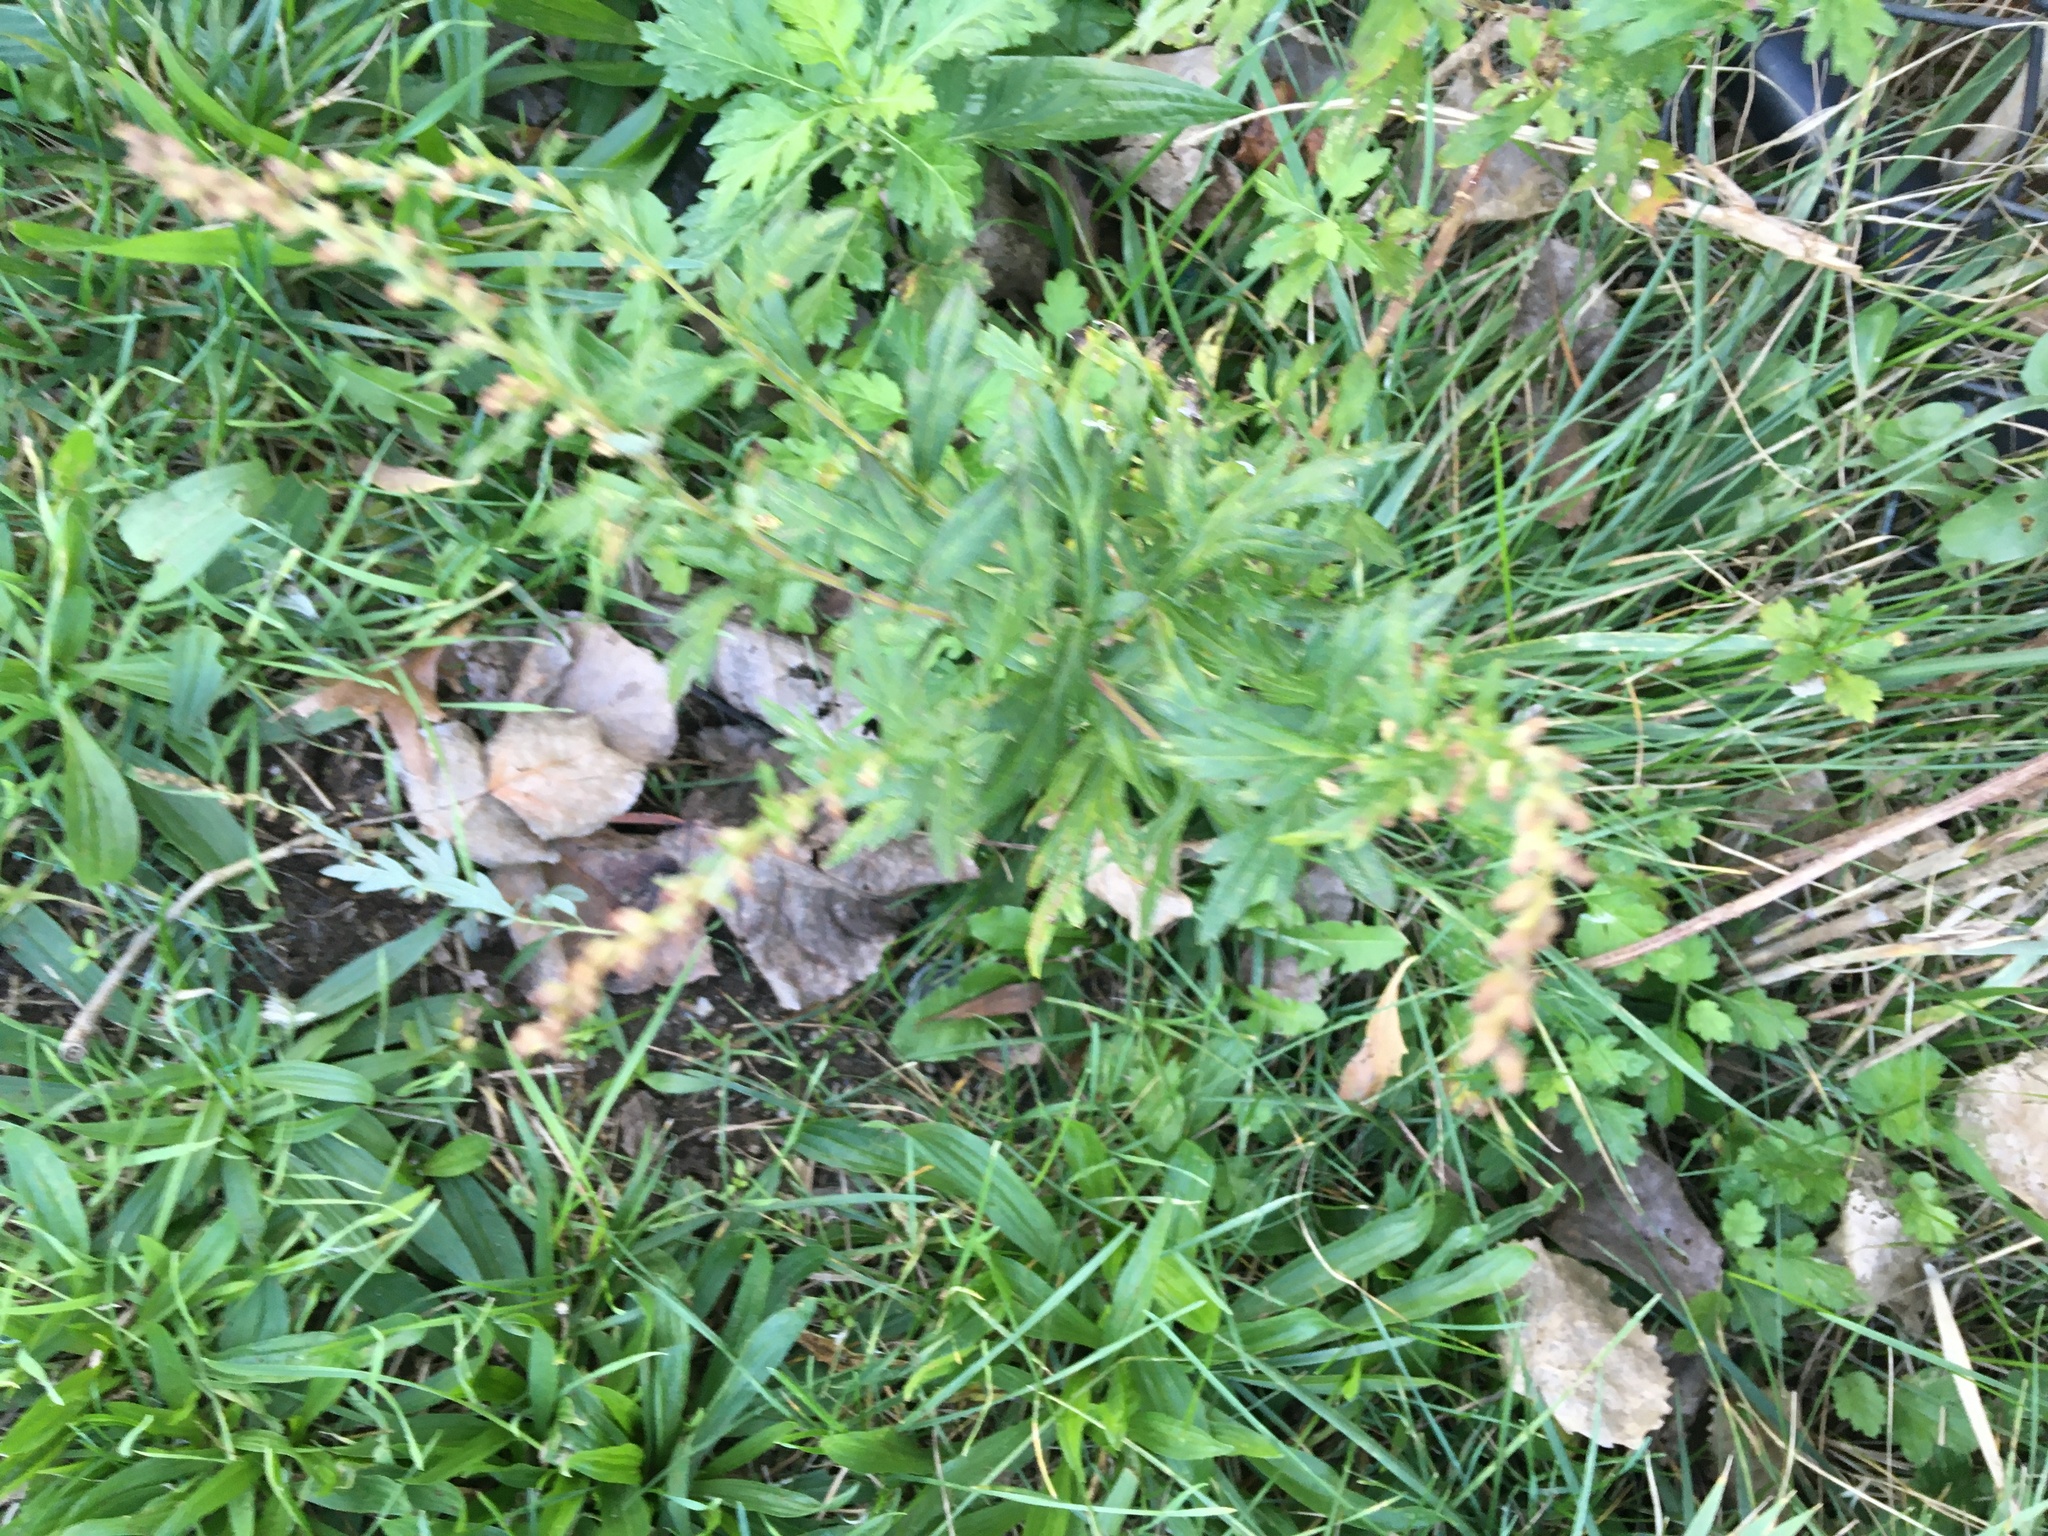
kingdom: Plantae
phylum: Tracheophyta
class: Magnoliopsida
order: Asterales
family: Asteraceae
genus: Artemisia
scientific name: Artemisia vulgaris
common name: Mugwort
